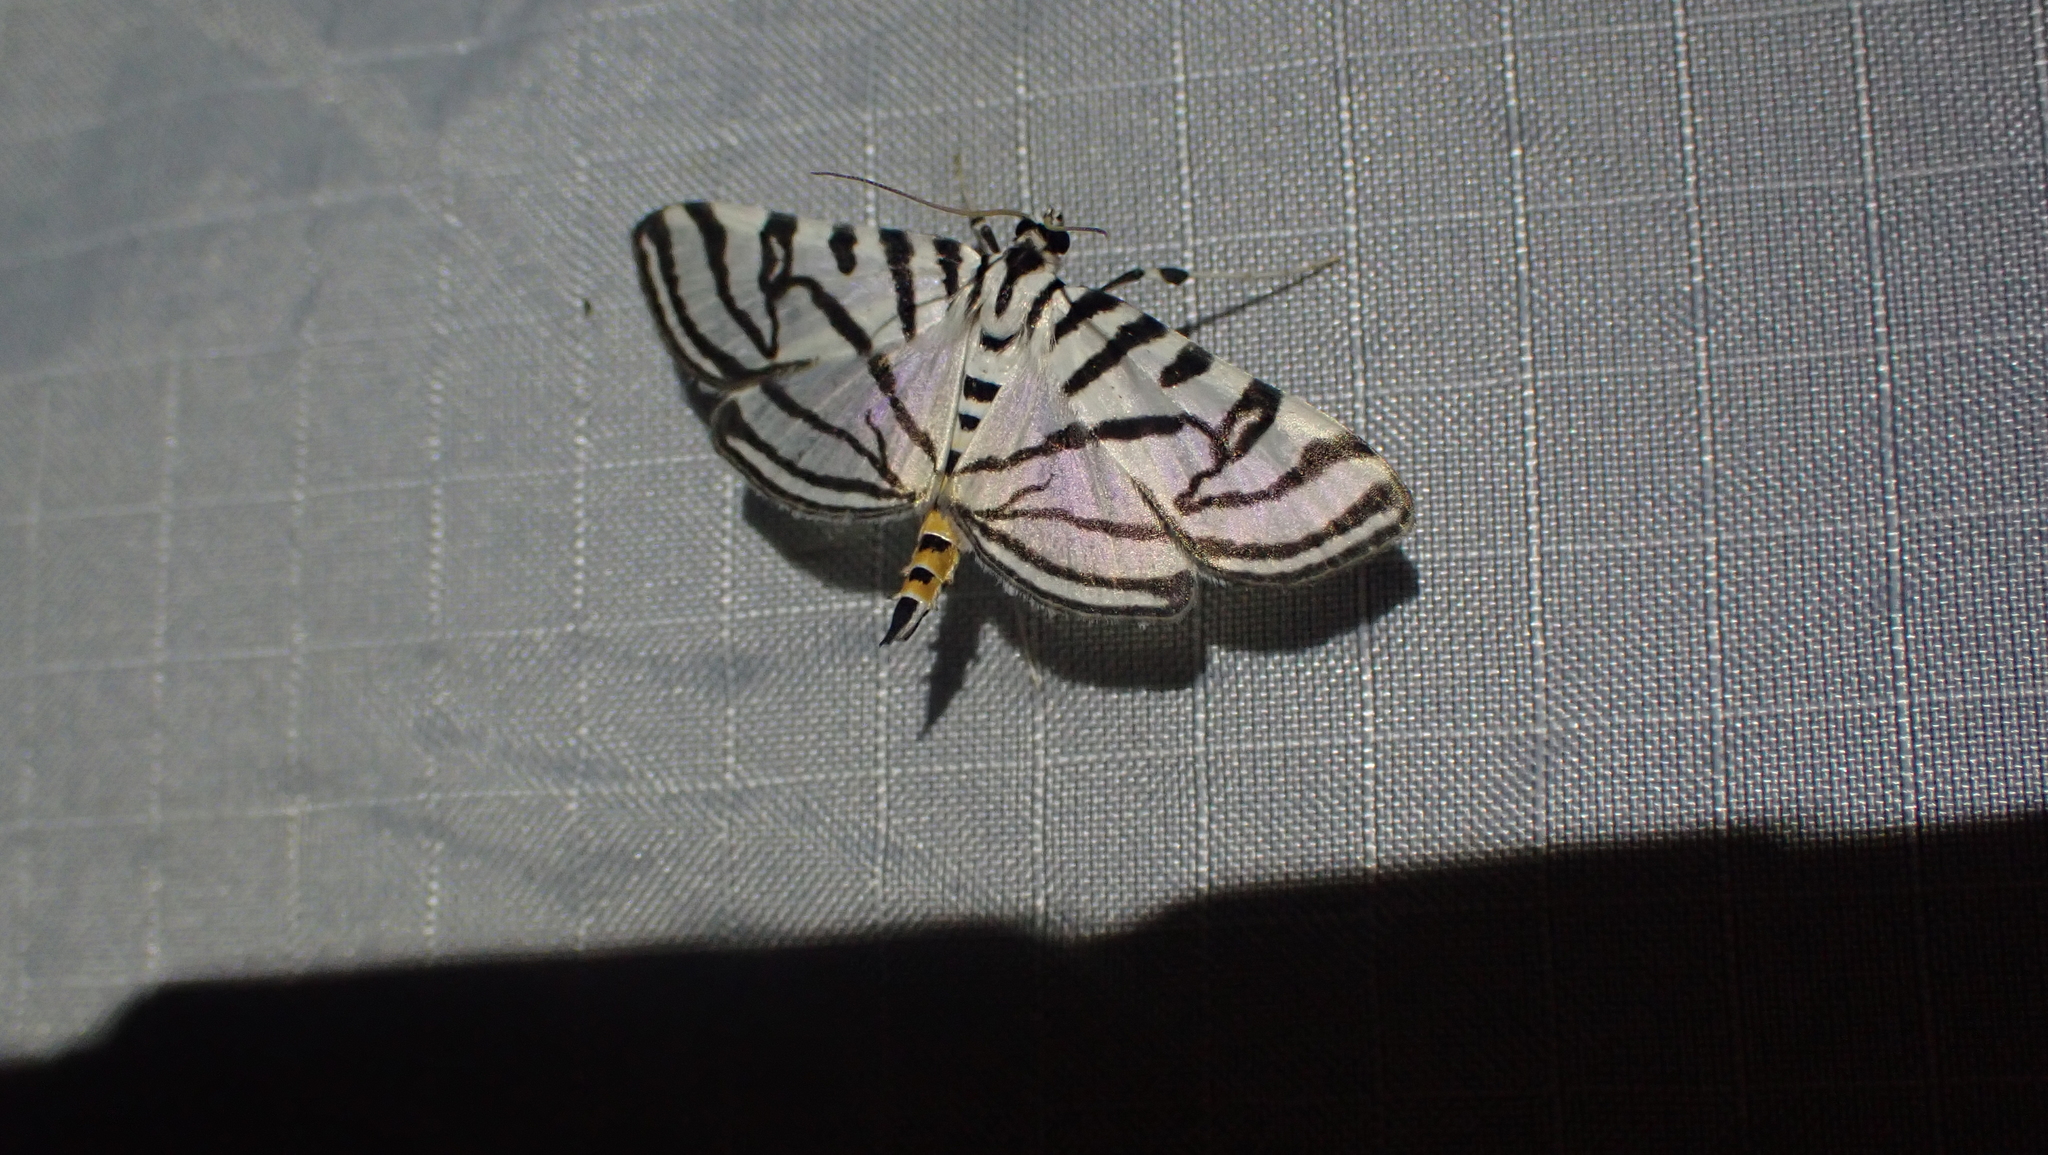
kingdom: Animalia
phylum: Arthropoda
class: Insecta
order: Lepidoptera
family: Crambidae
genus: Conchylodes
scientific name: Conchylodes ovulalis
